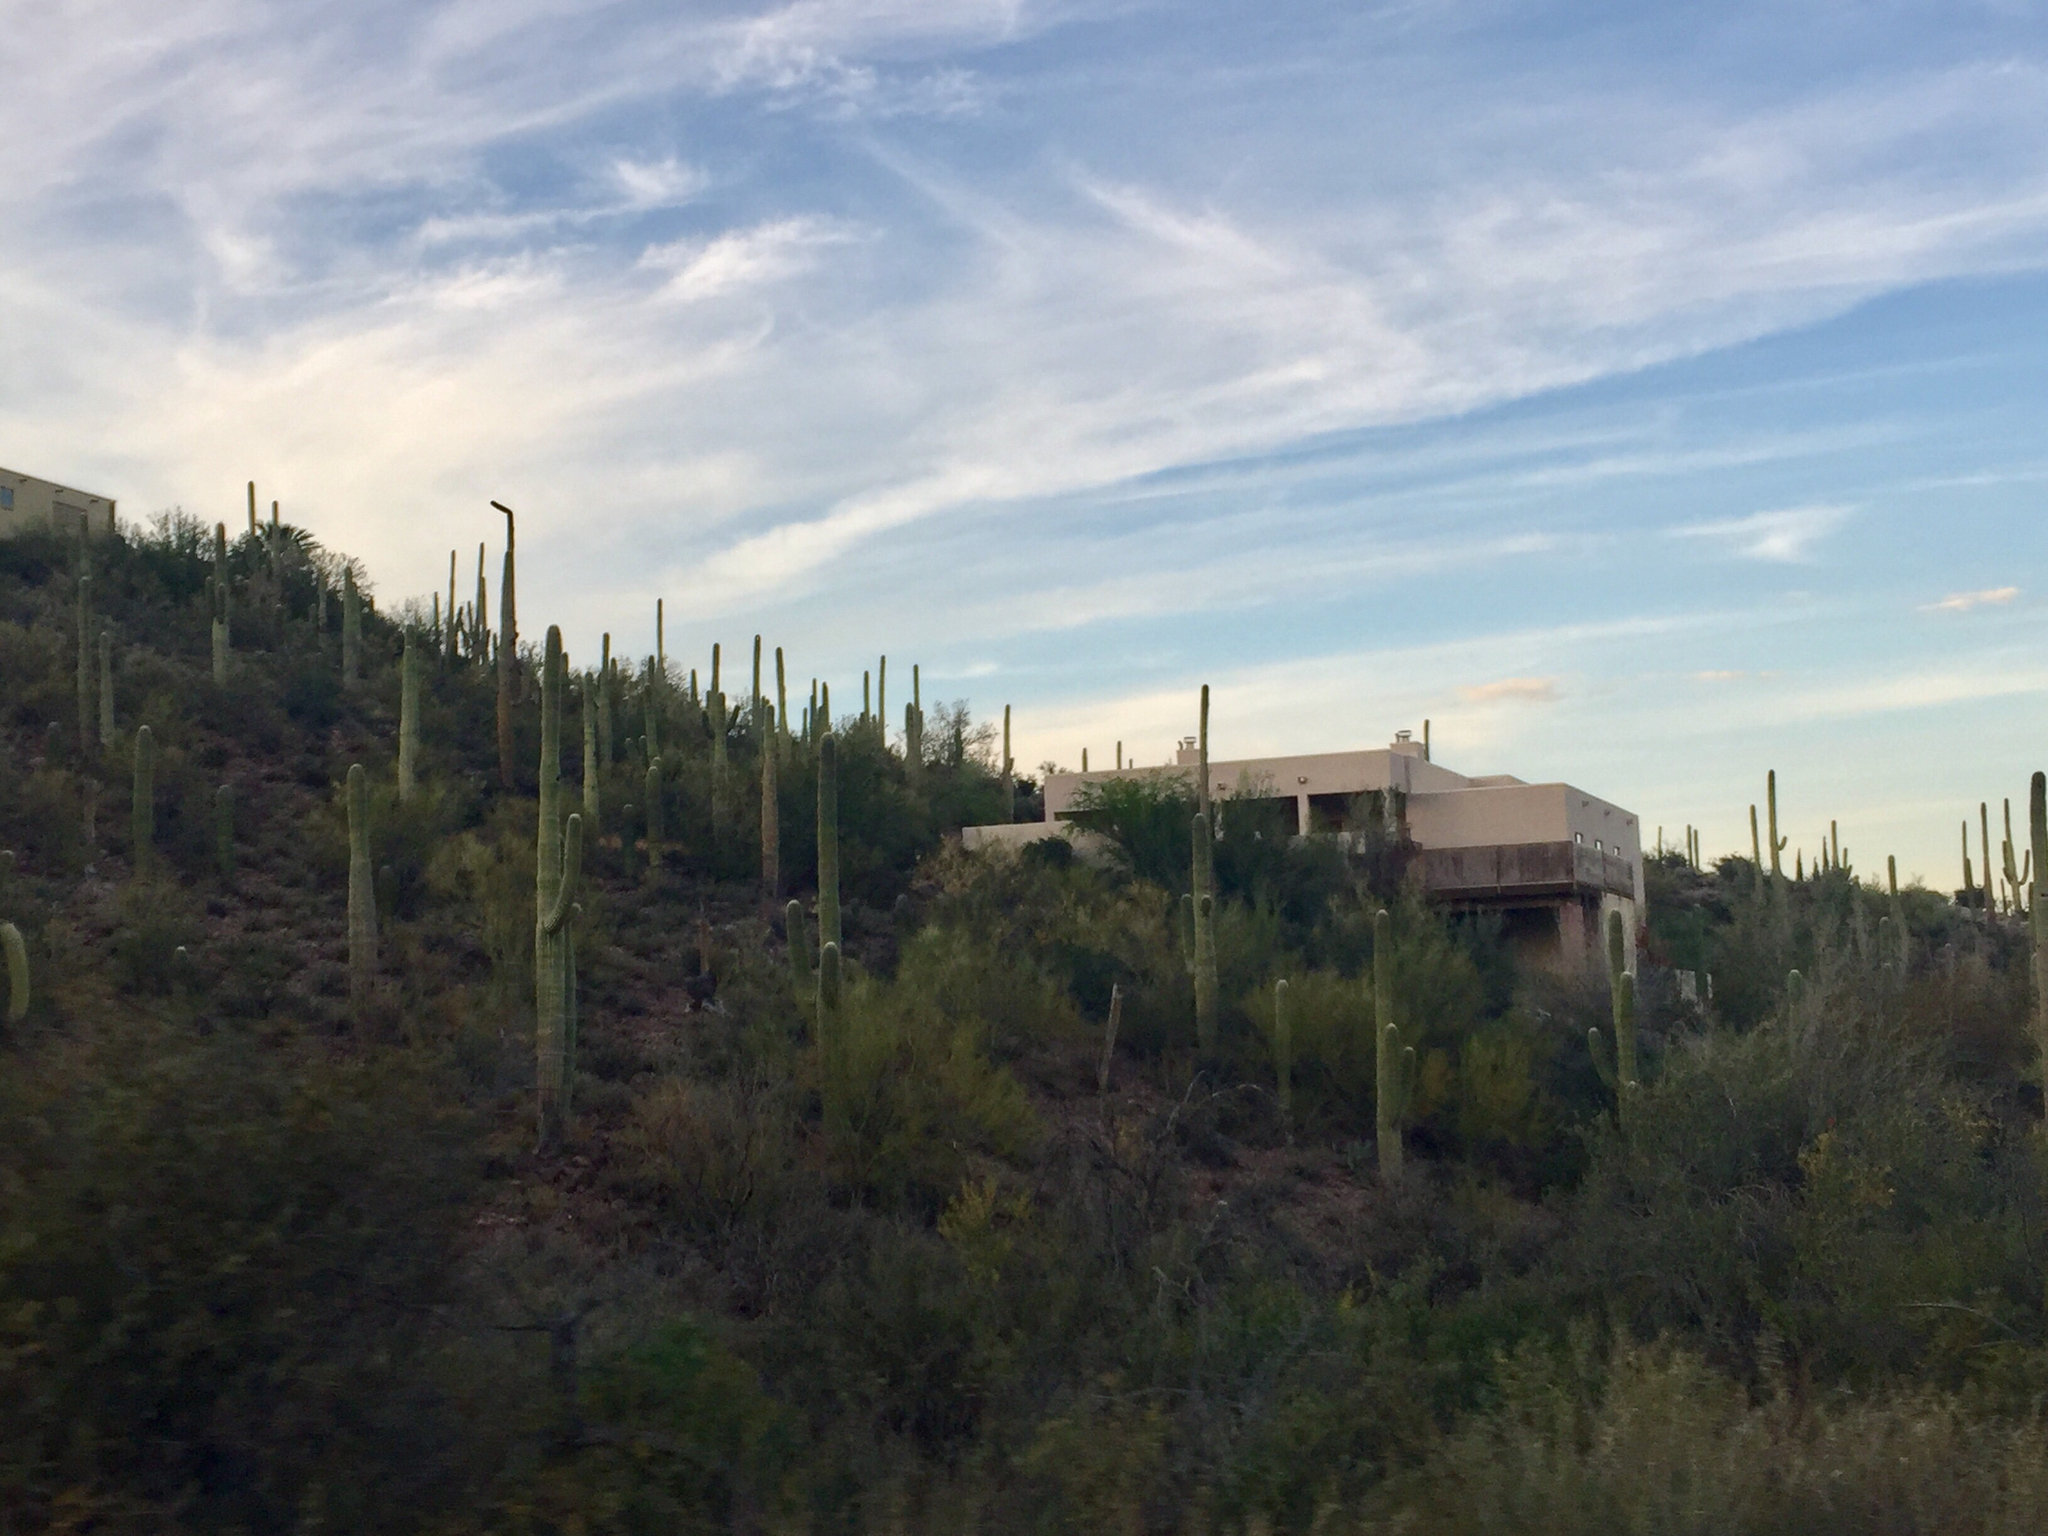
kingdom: Plantae
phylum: Tracheophyta
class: Magnoliopsida
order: Caryophyllales
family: Cactaceae
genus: Carnegiea
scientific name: Carnegiea gigantea
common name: Saguaro
